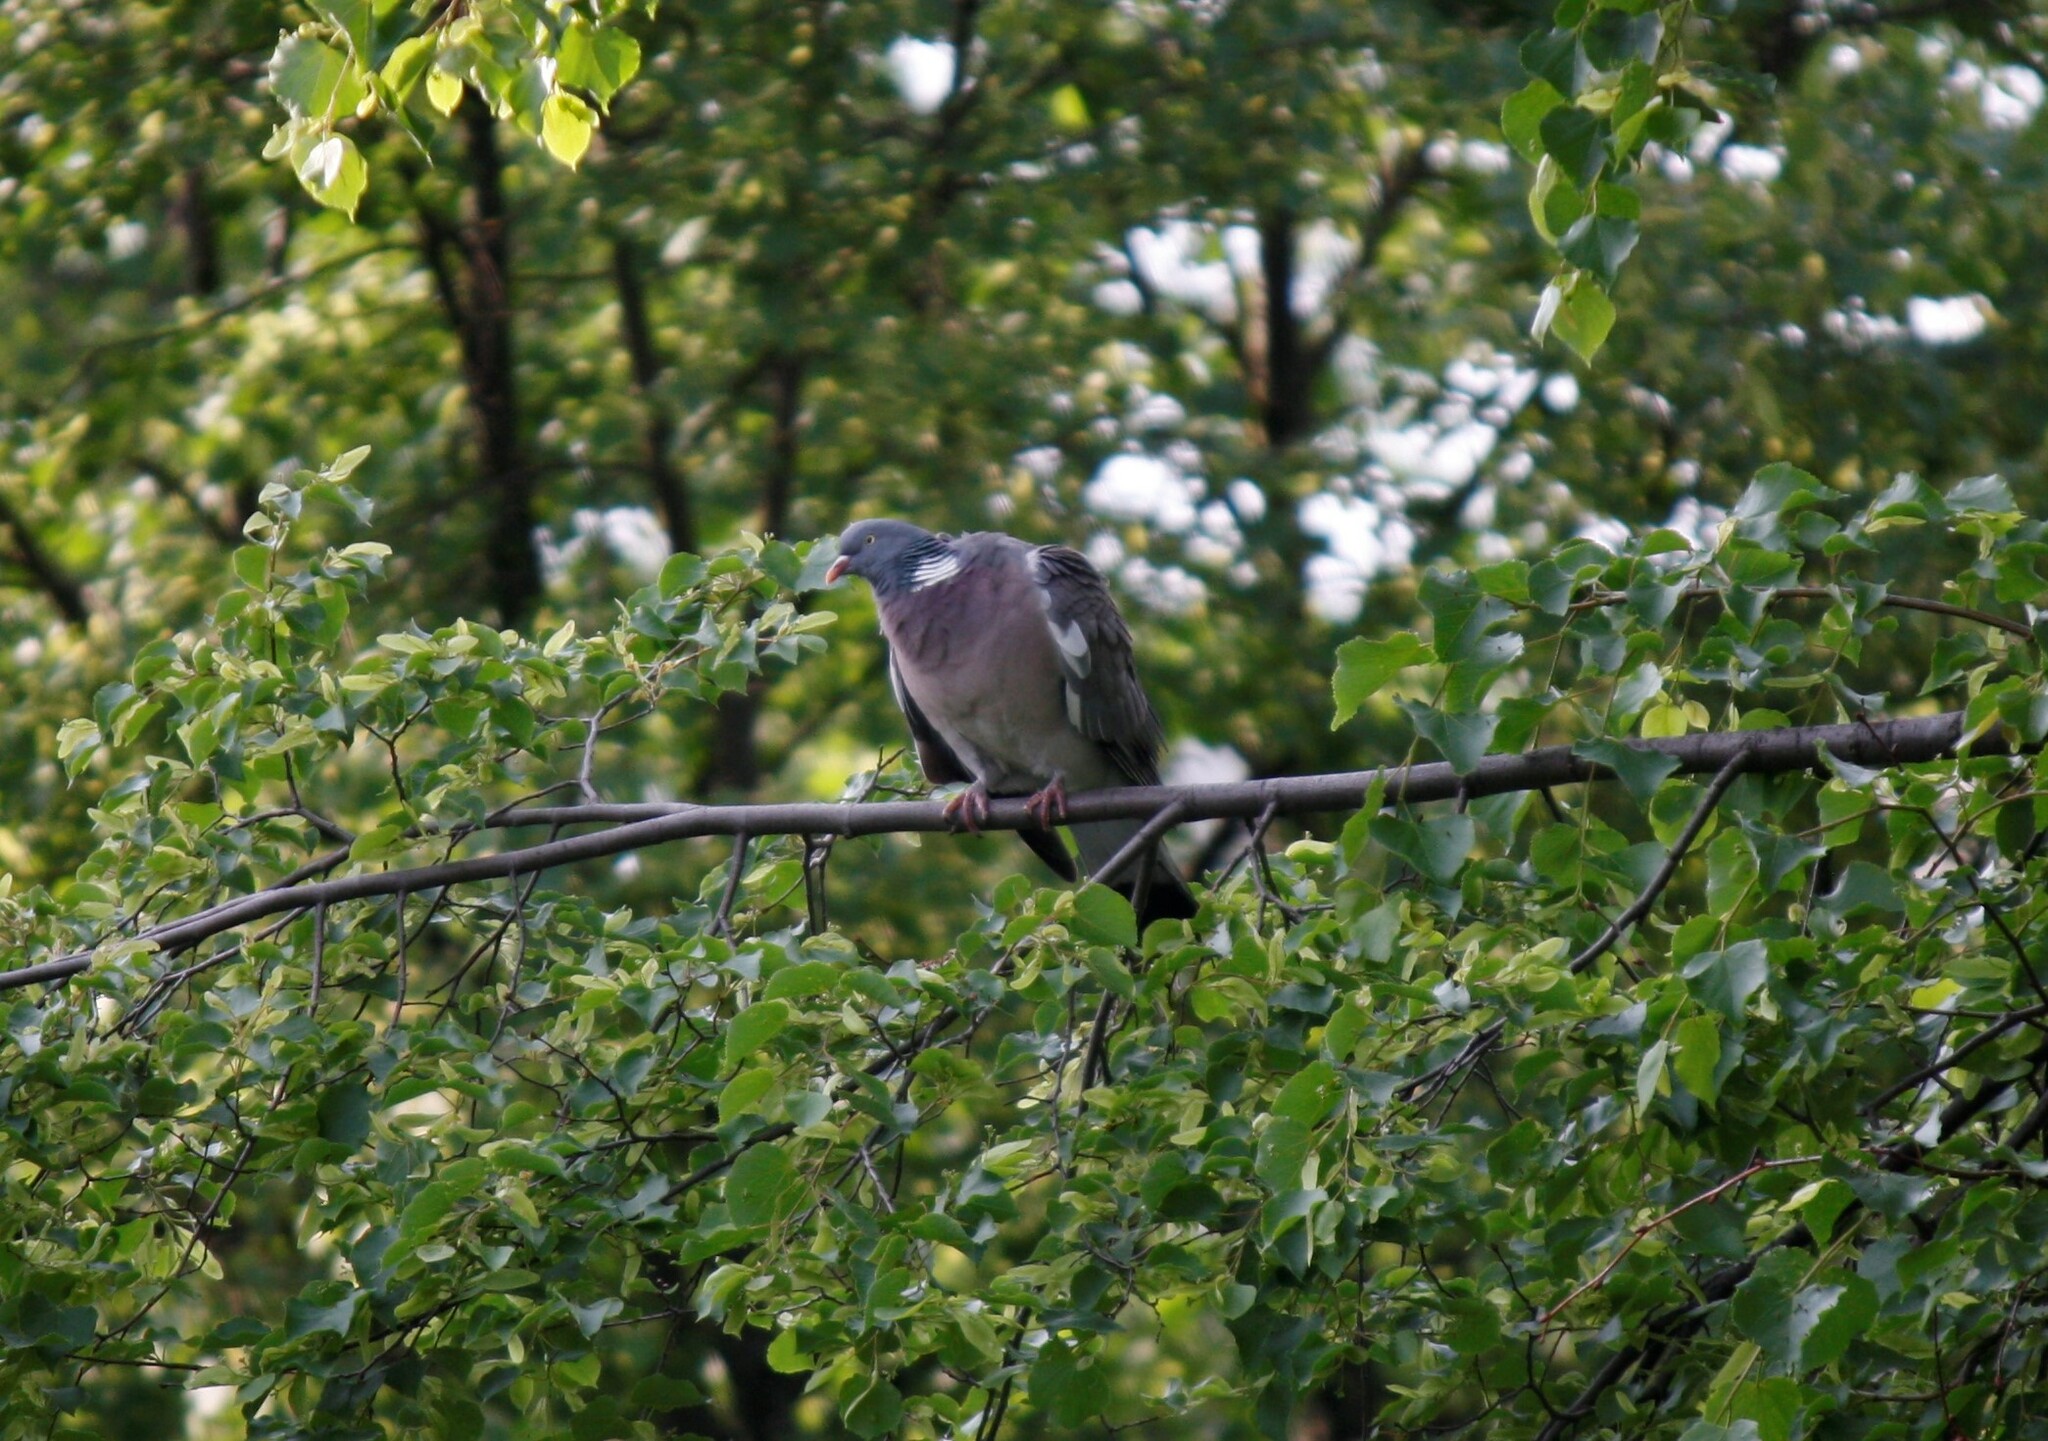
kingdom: Animalia
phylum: Chordata
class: Aves
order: Columbiformes
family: Columbidae
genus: Columba
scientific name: Columba palumbus
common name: Common wood pigeon
